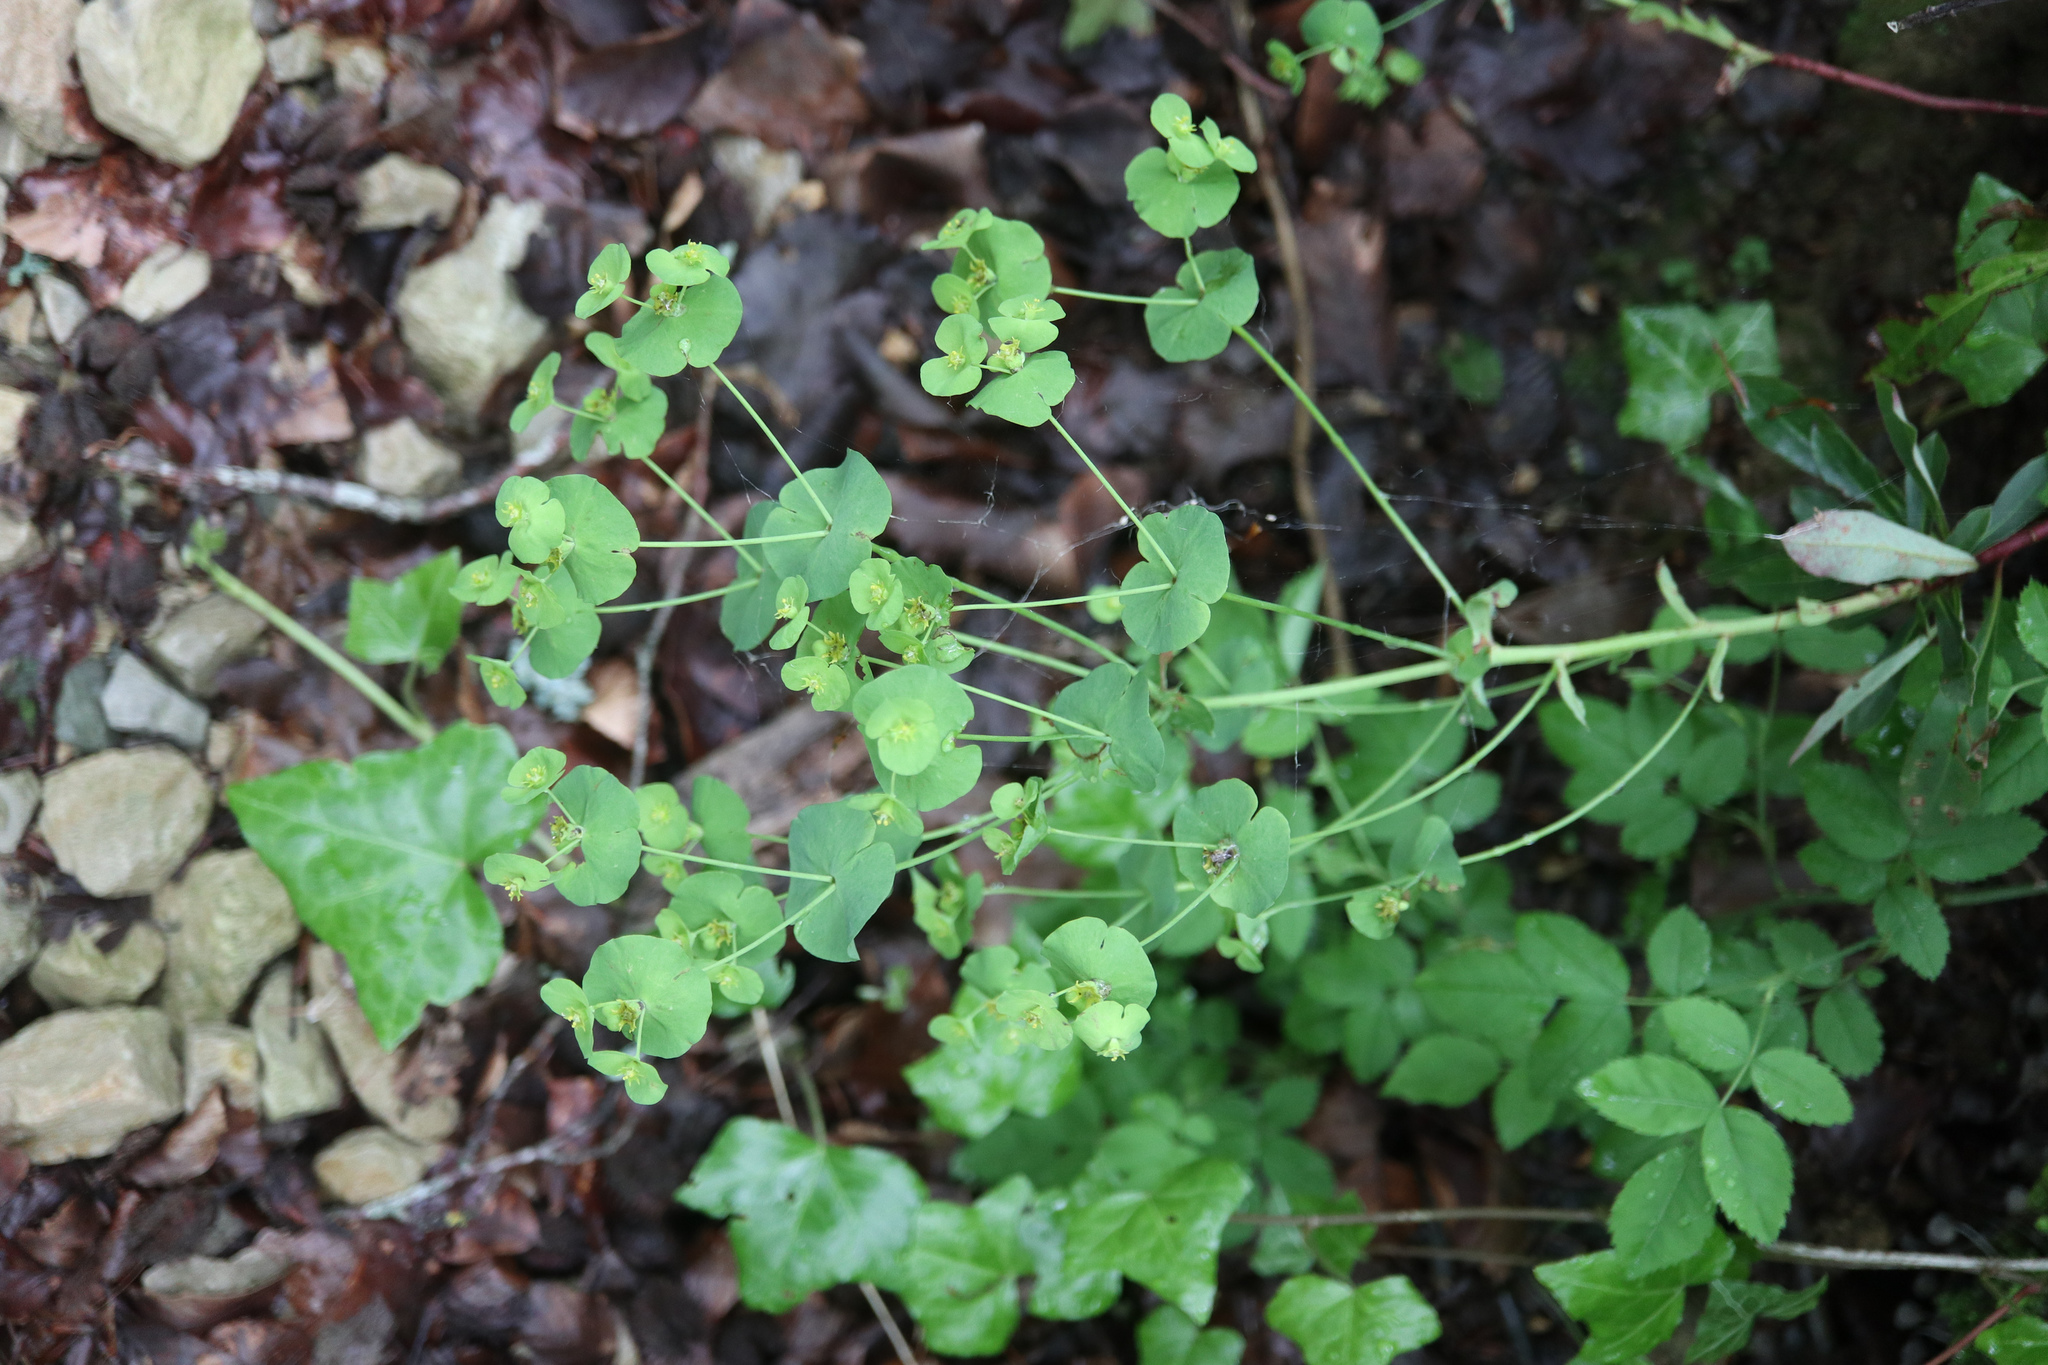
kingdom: Plantae
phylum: Tracheophyta
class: Magnoliopsida
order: Malpighiales
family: Euphorbiaceae
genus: Euphorbia
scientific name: Euphorbia amygdaloides
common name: Wood spurge
